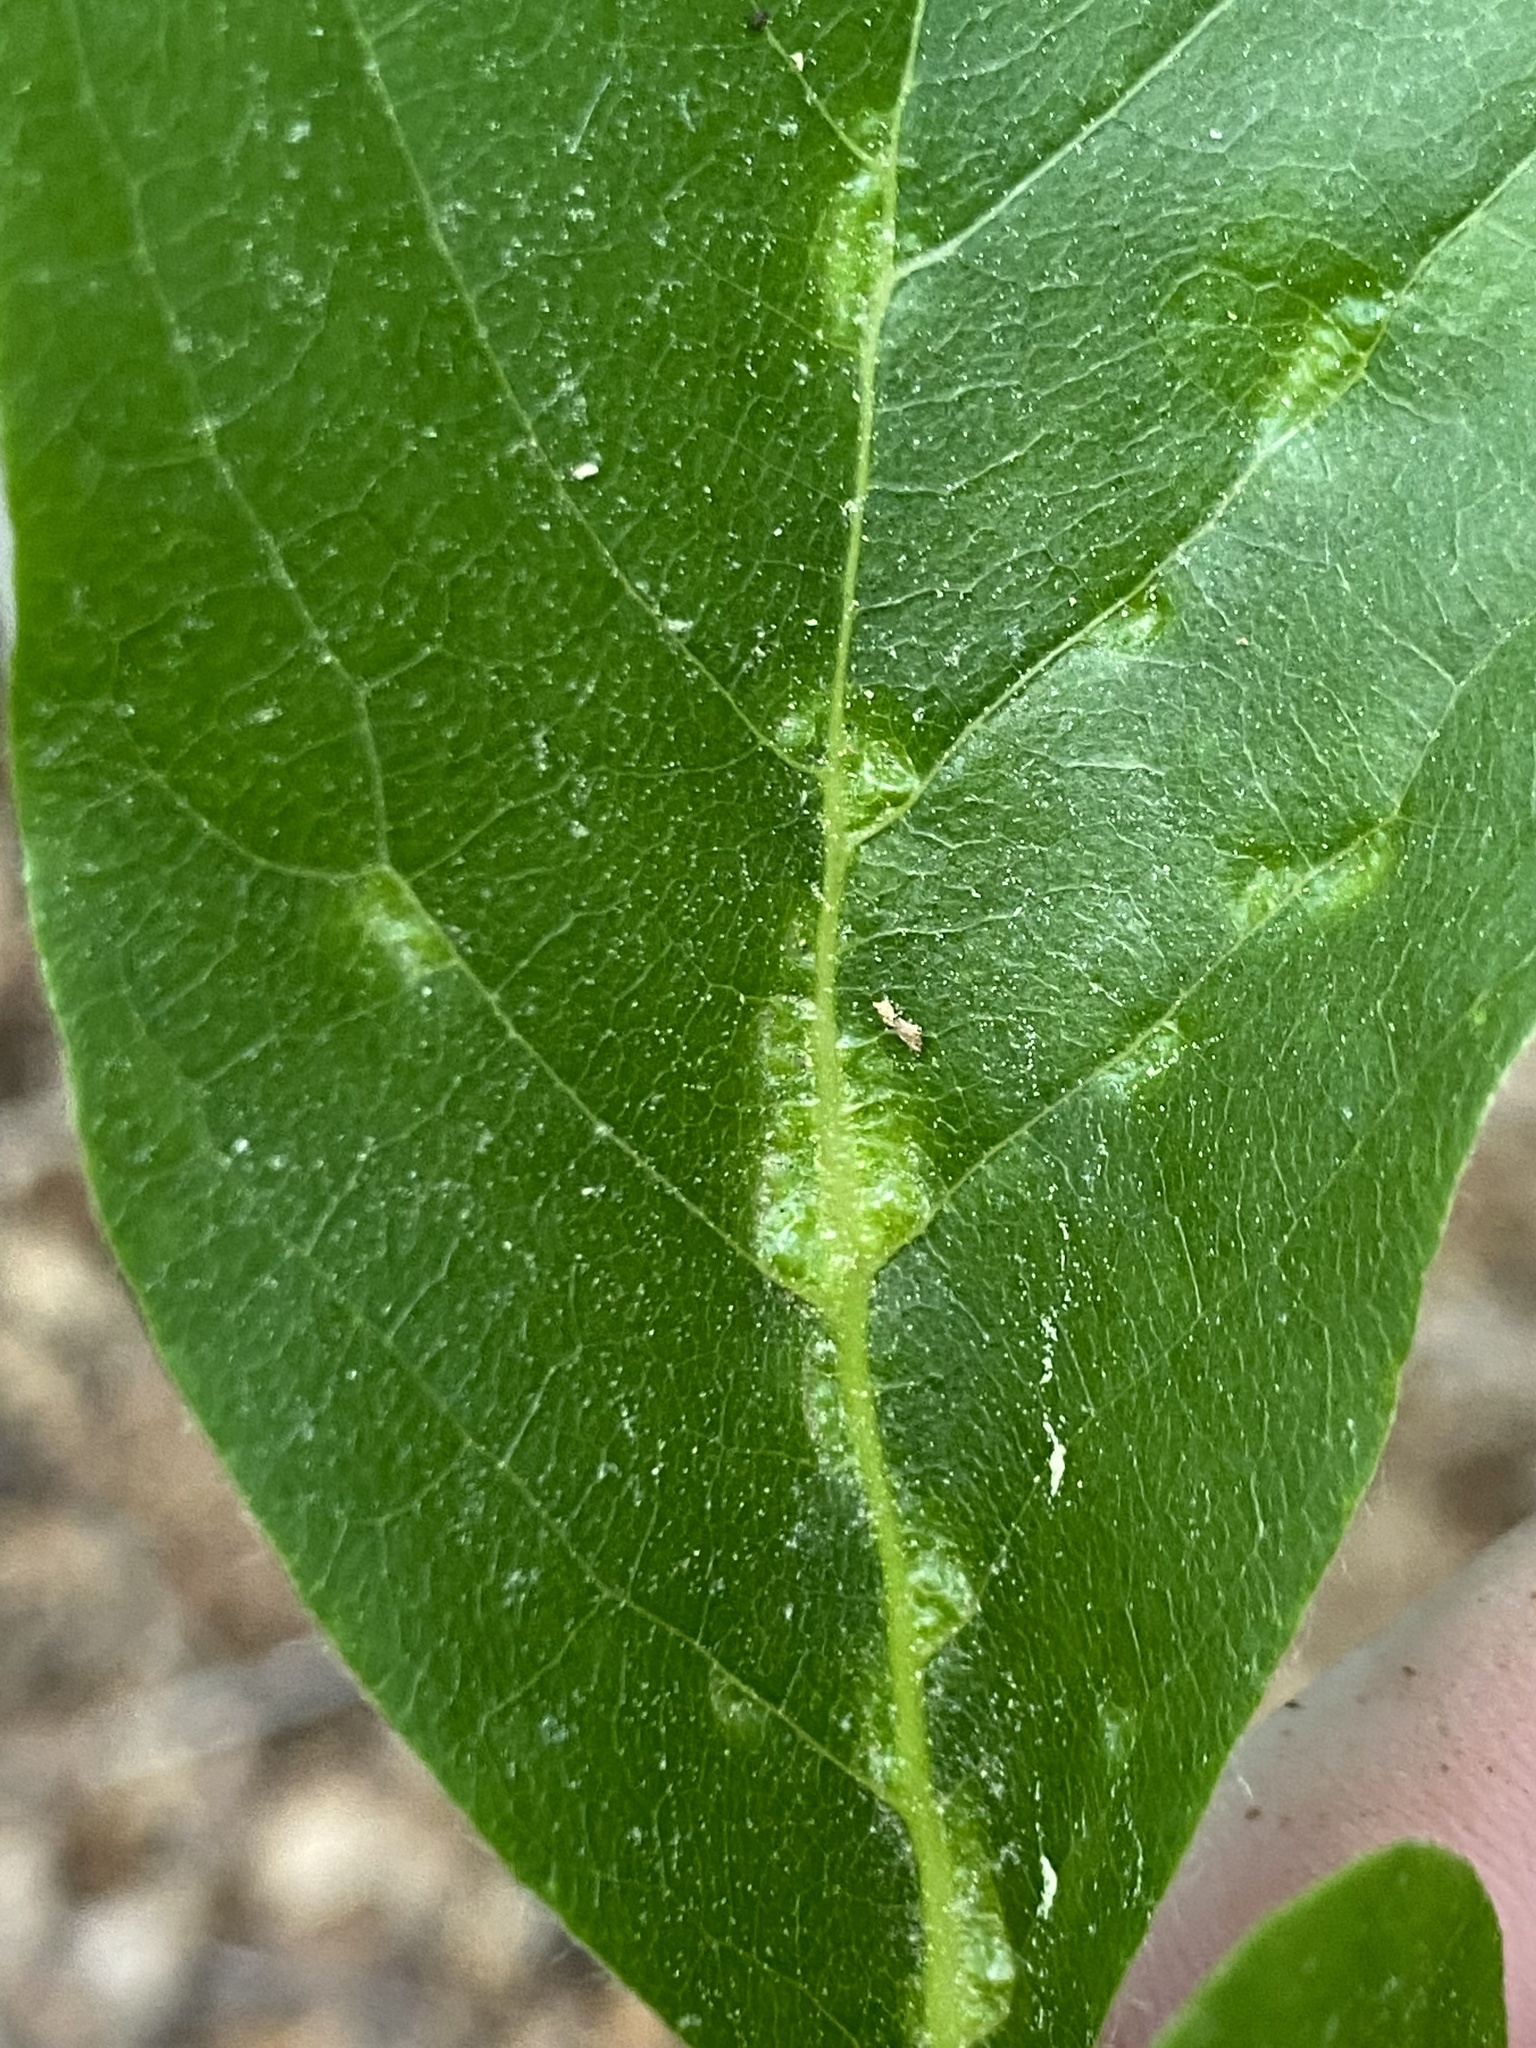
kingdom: Animalia
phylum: Arthropoda
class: Arachnida
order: Trombidiformes
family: Eriophyidae
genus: Cenalox
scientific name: Cenalox
